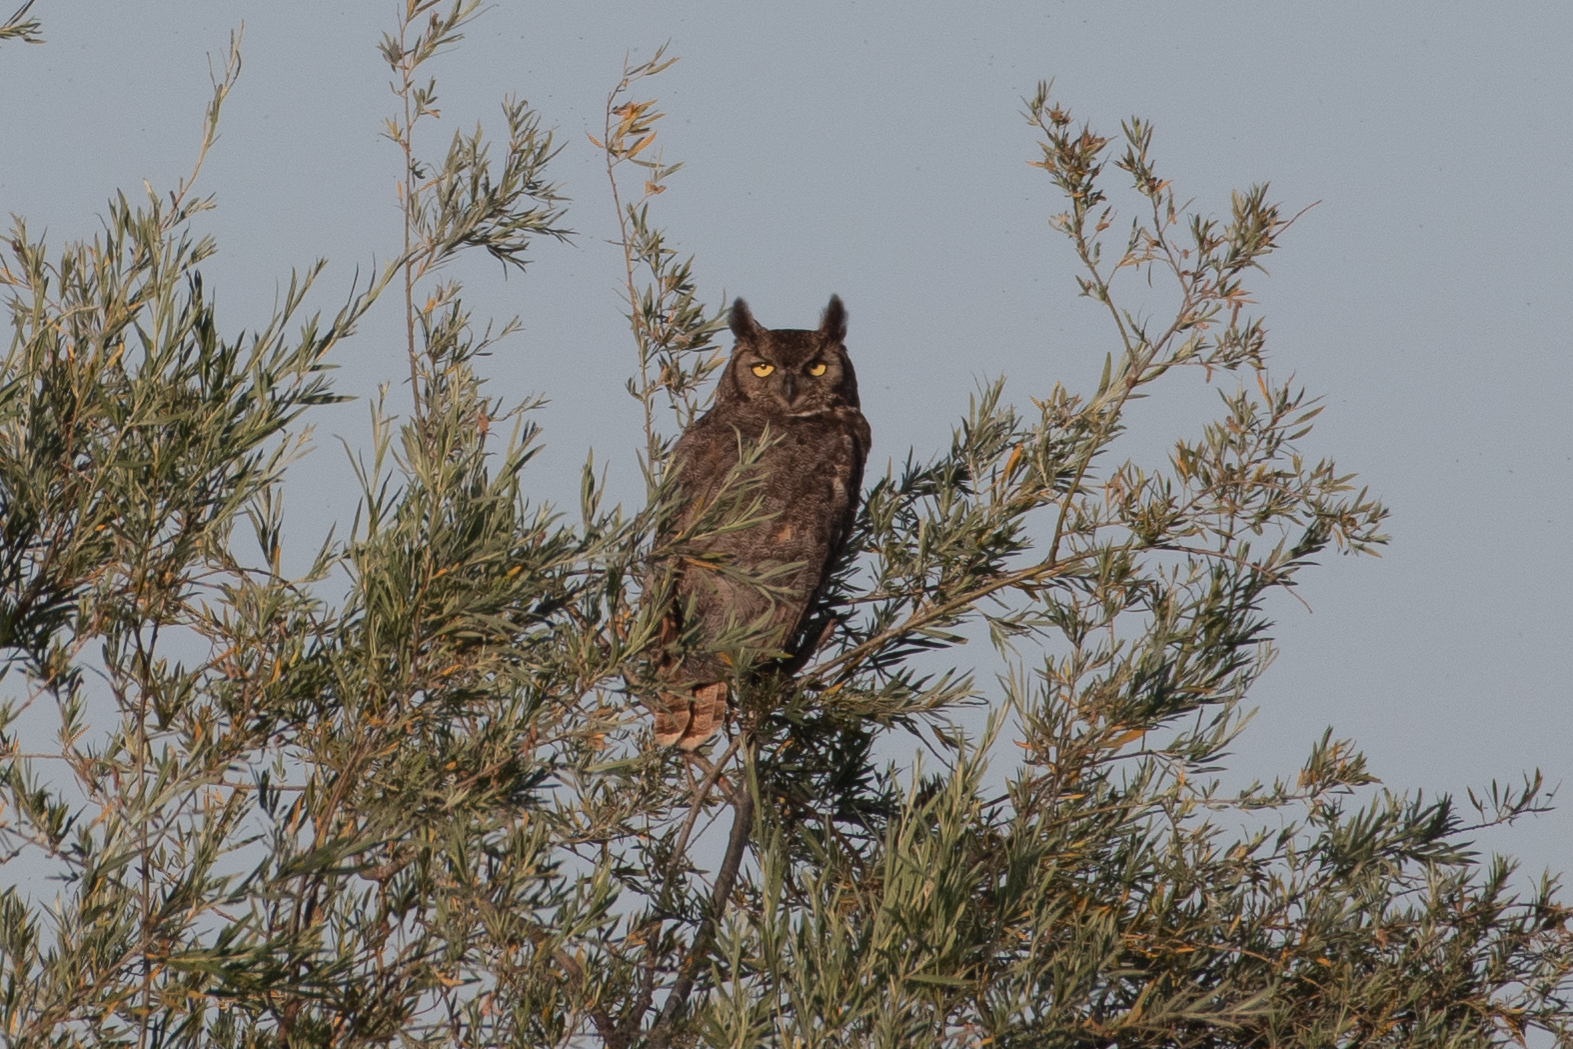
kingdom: Animalia
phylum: Chordata
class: Aves
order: Strigiformes
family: Strigidae
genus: Bubo
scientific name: Bubo virginianus
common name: Great horned owl
